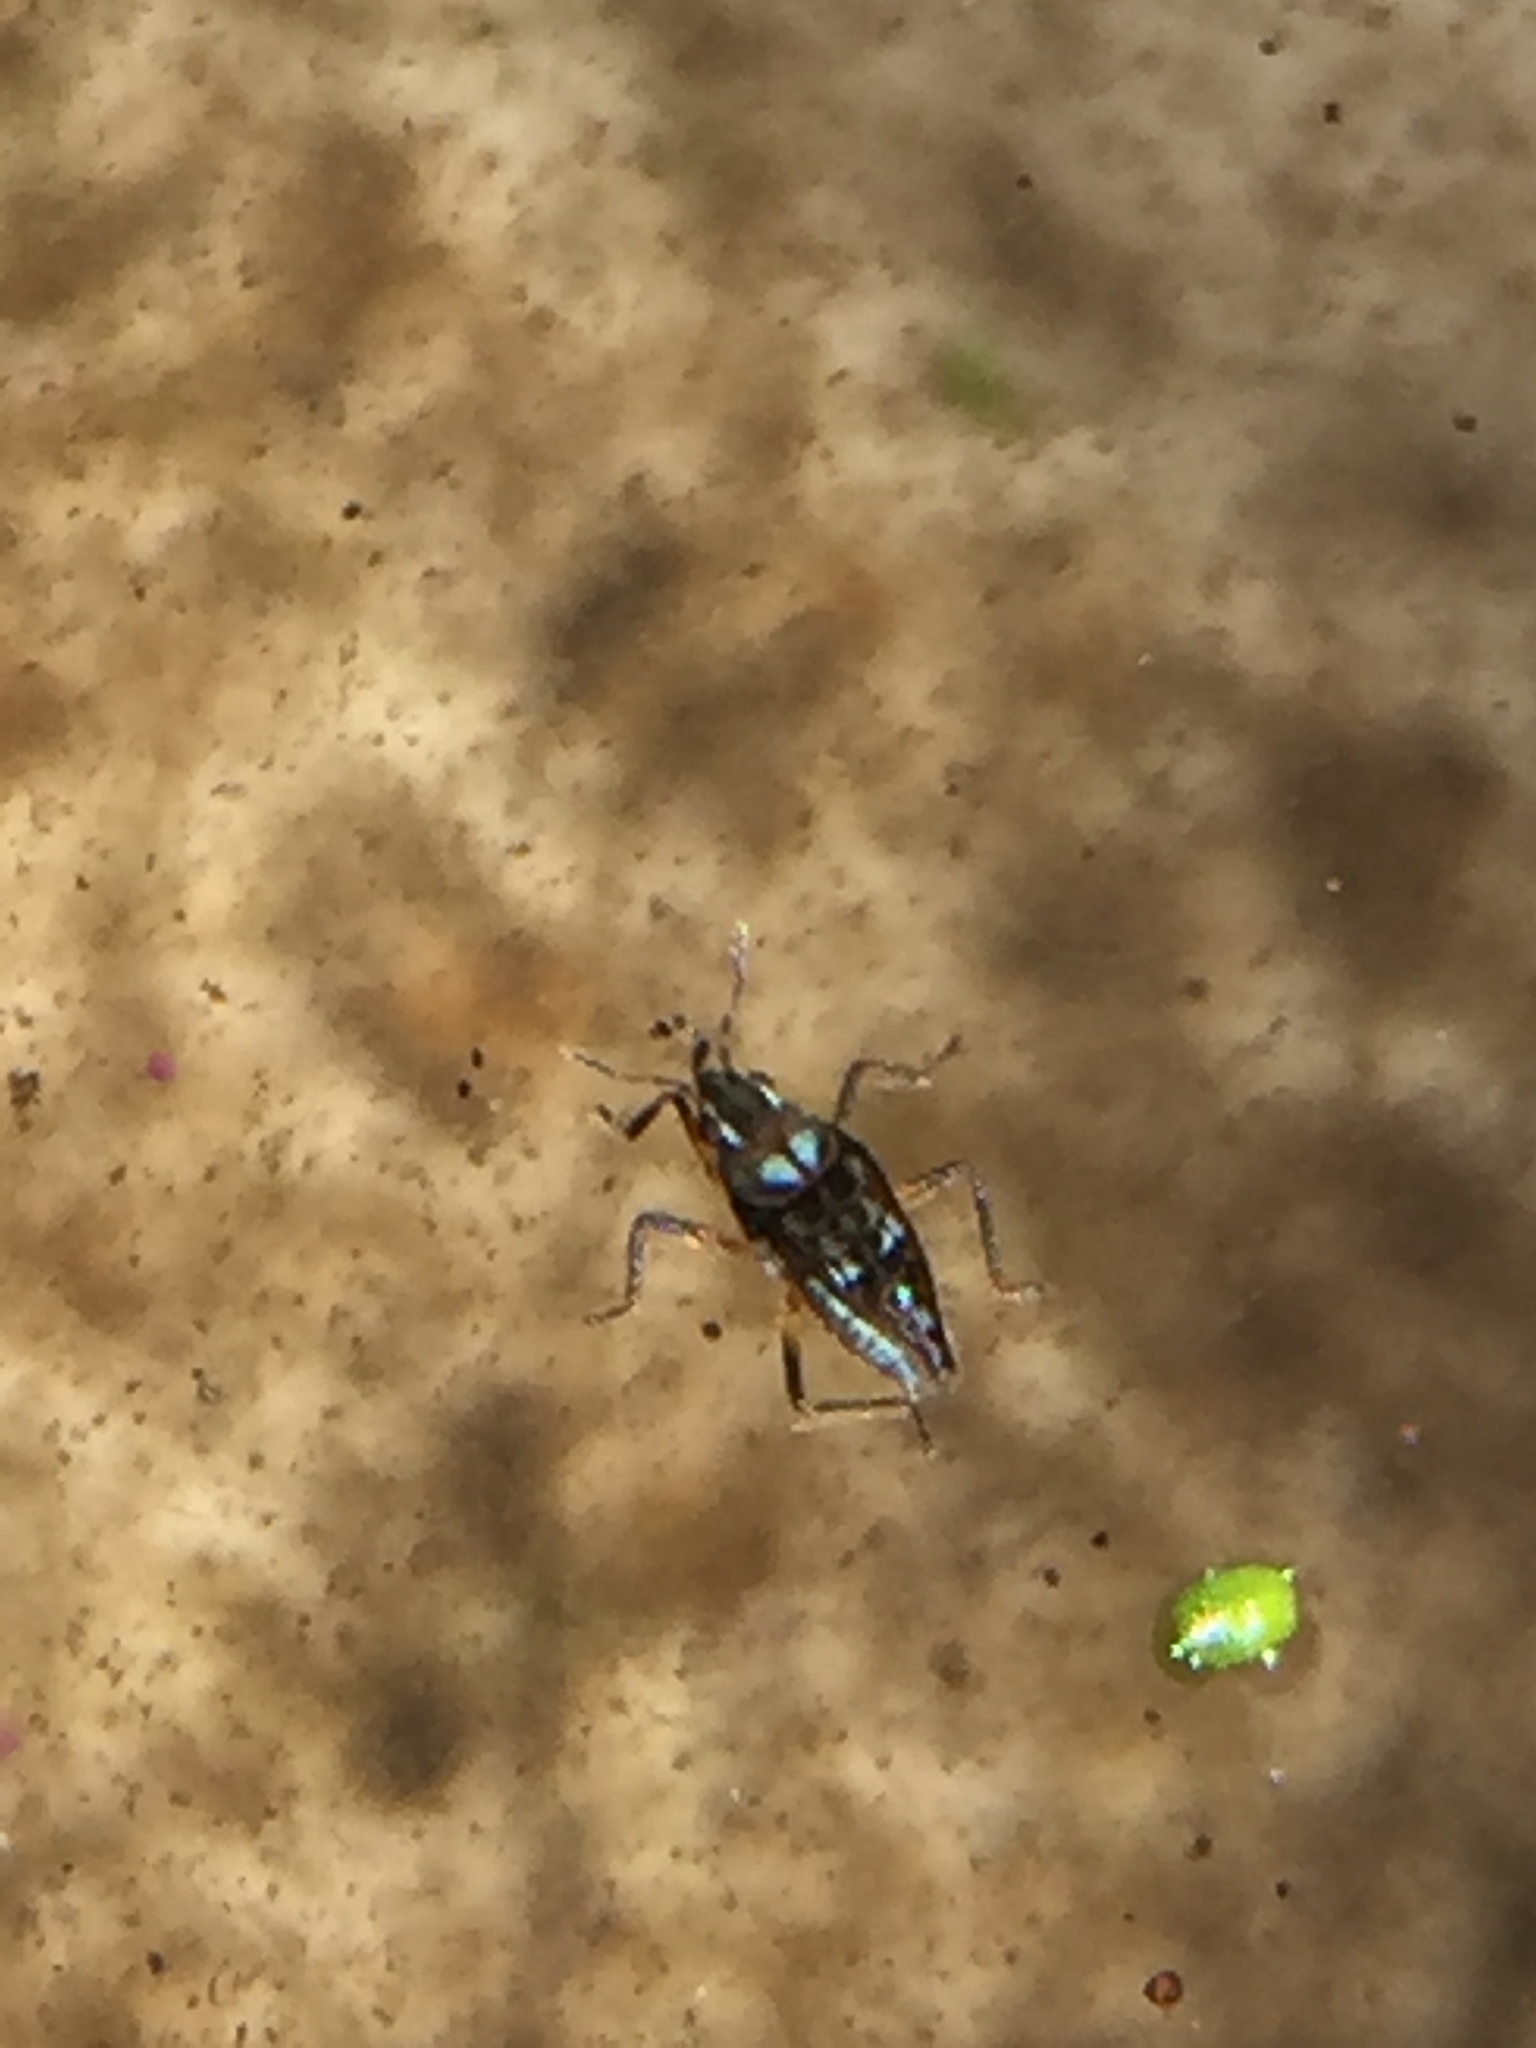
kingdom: Animalia
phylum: Arthropoda
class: Insecta
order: Hemiptera
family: Veliidae
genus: Microvelia
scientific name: Microvelia macgregori
